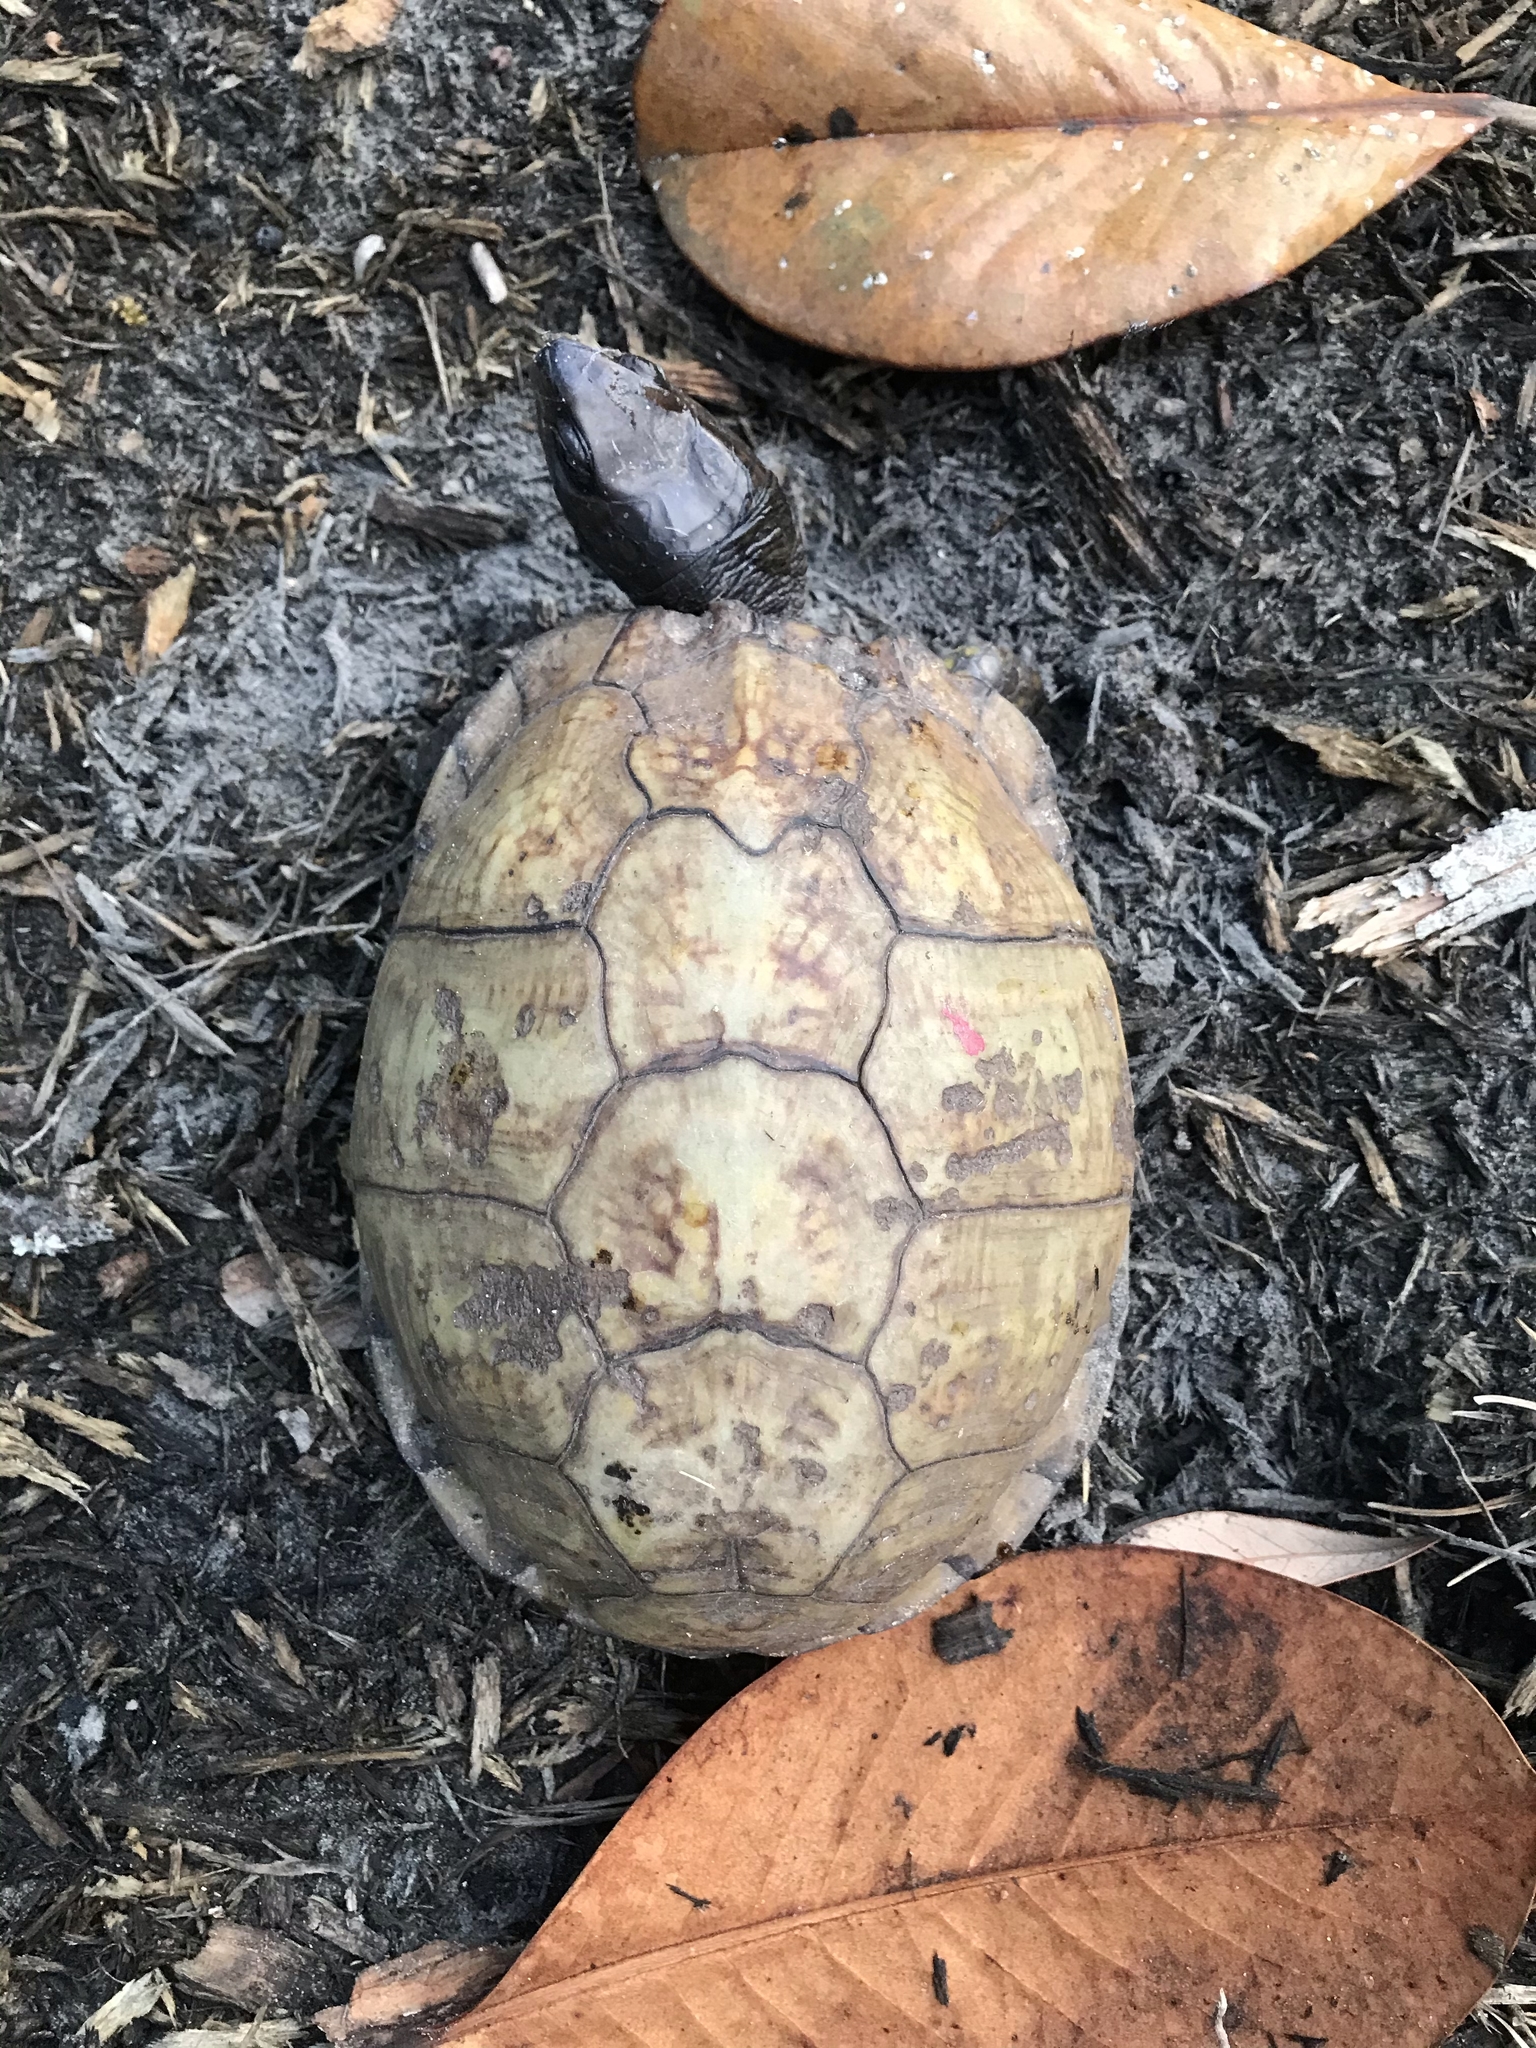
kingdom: Animalia
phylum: Chordata
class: Testudines
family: Emydidae
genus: Terrapene
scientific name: Terrapene carolina
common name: Common box turtle
